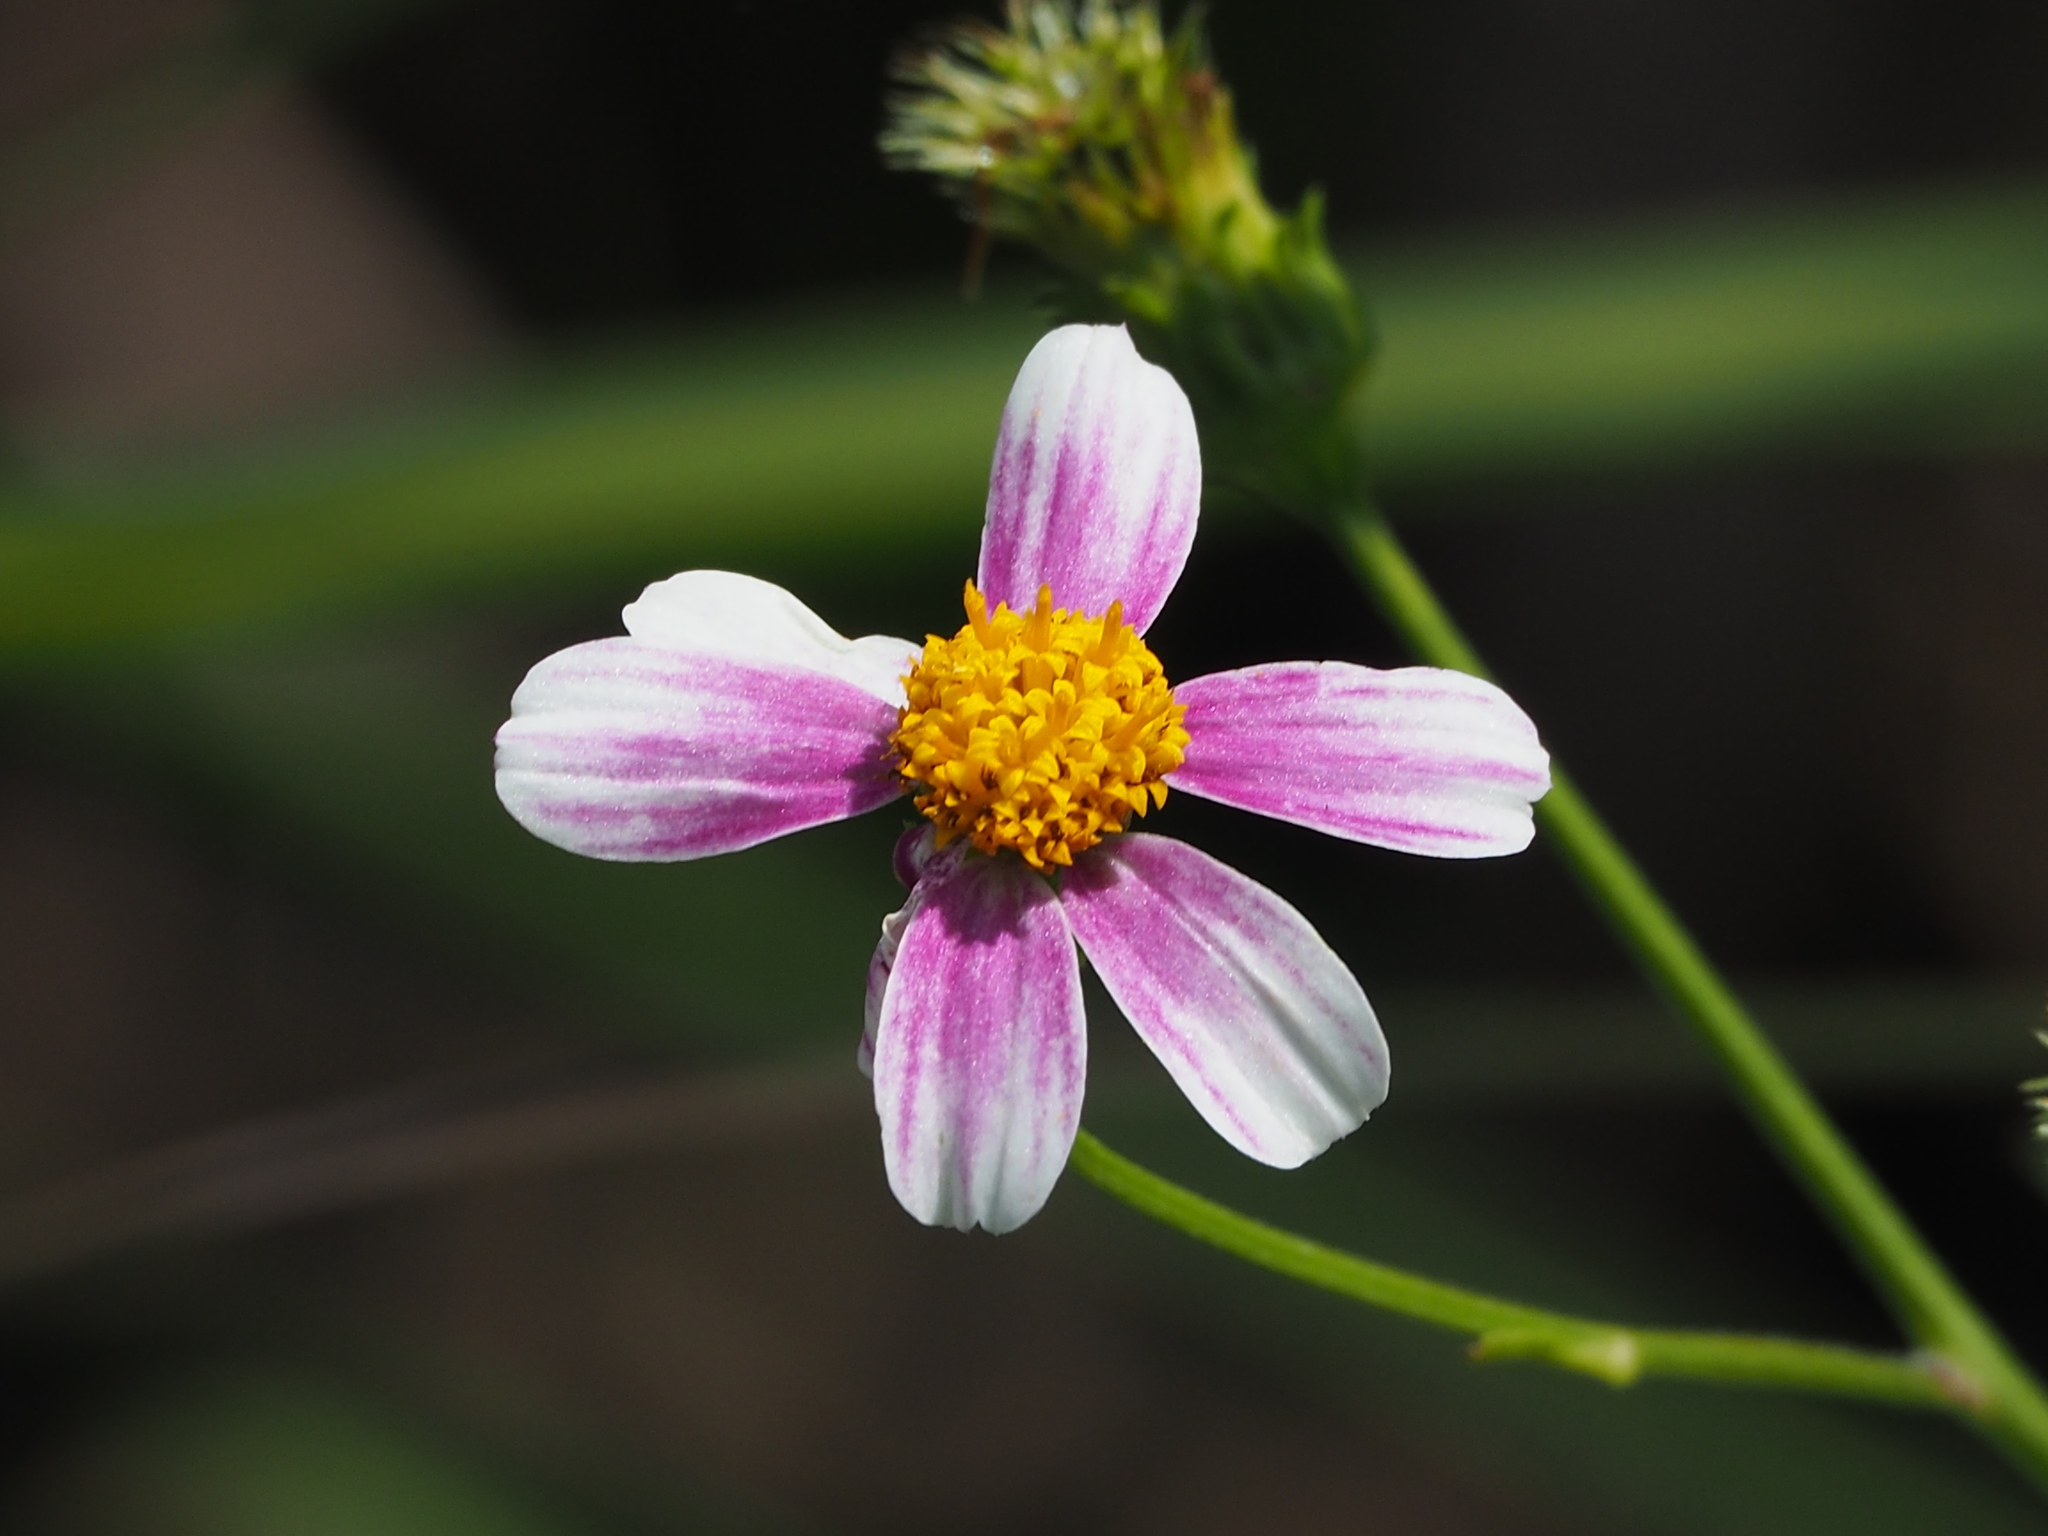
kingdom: Plantae
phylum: Tracheophyta
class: Magnoliopsida
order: Asterales
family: Asteraceae
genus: Bidens
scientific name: Bidens alba
